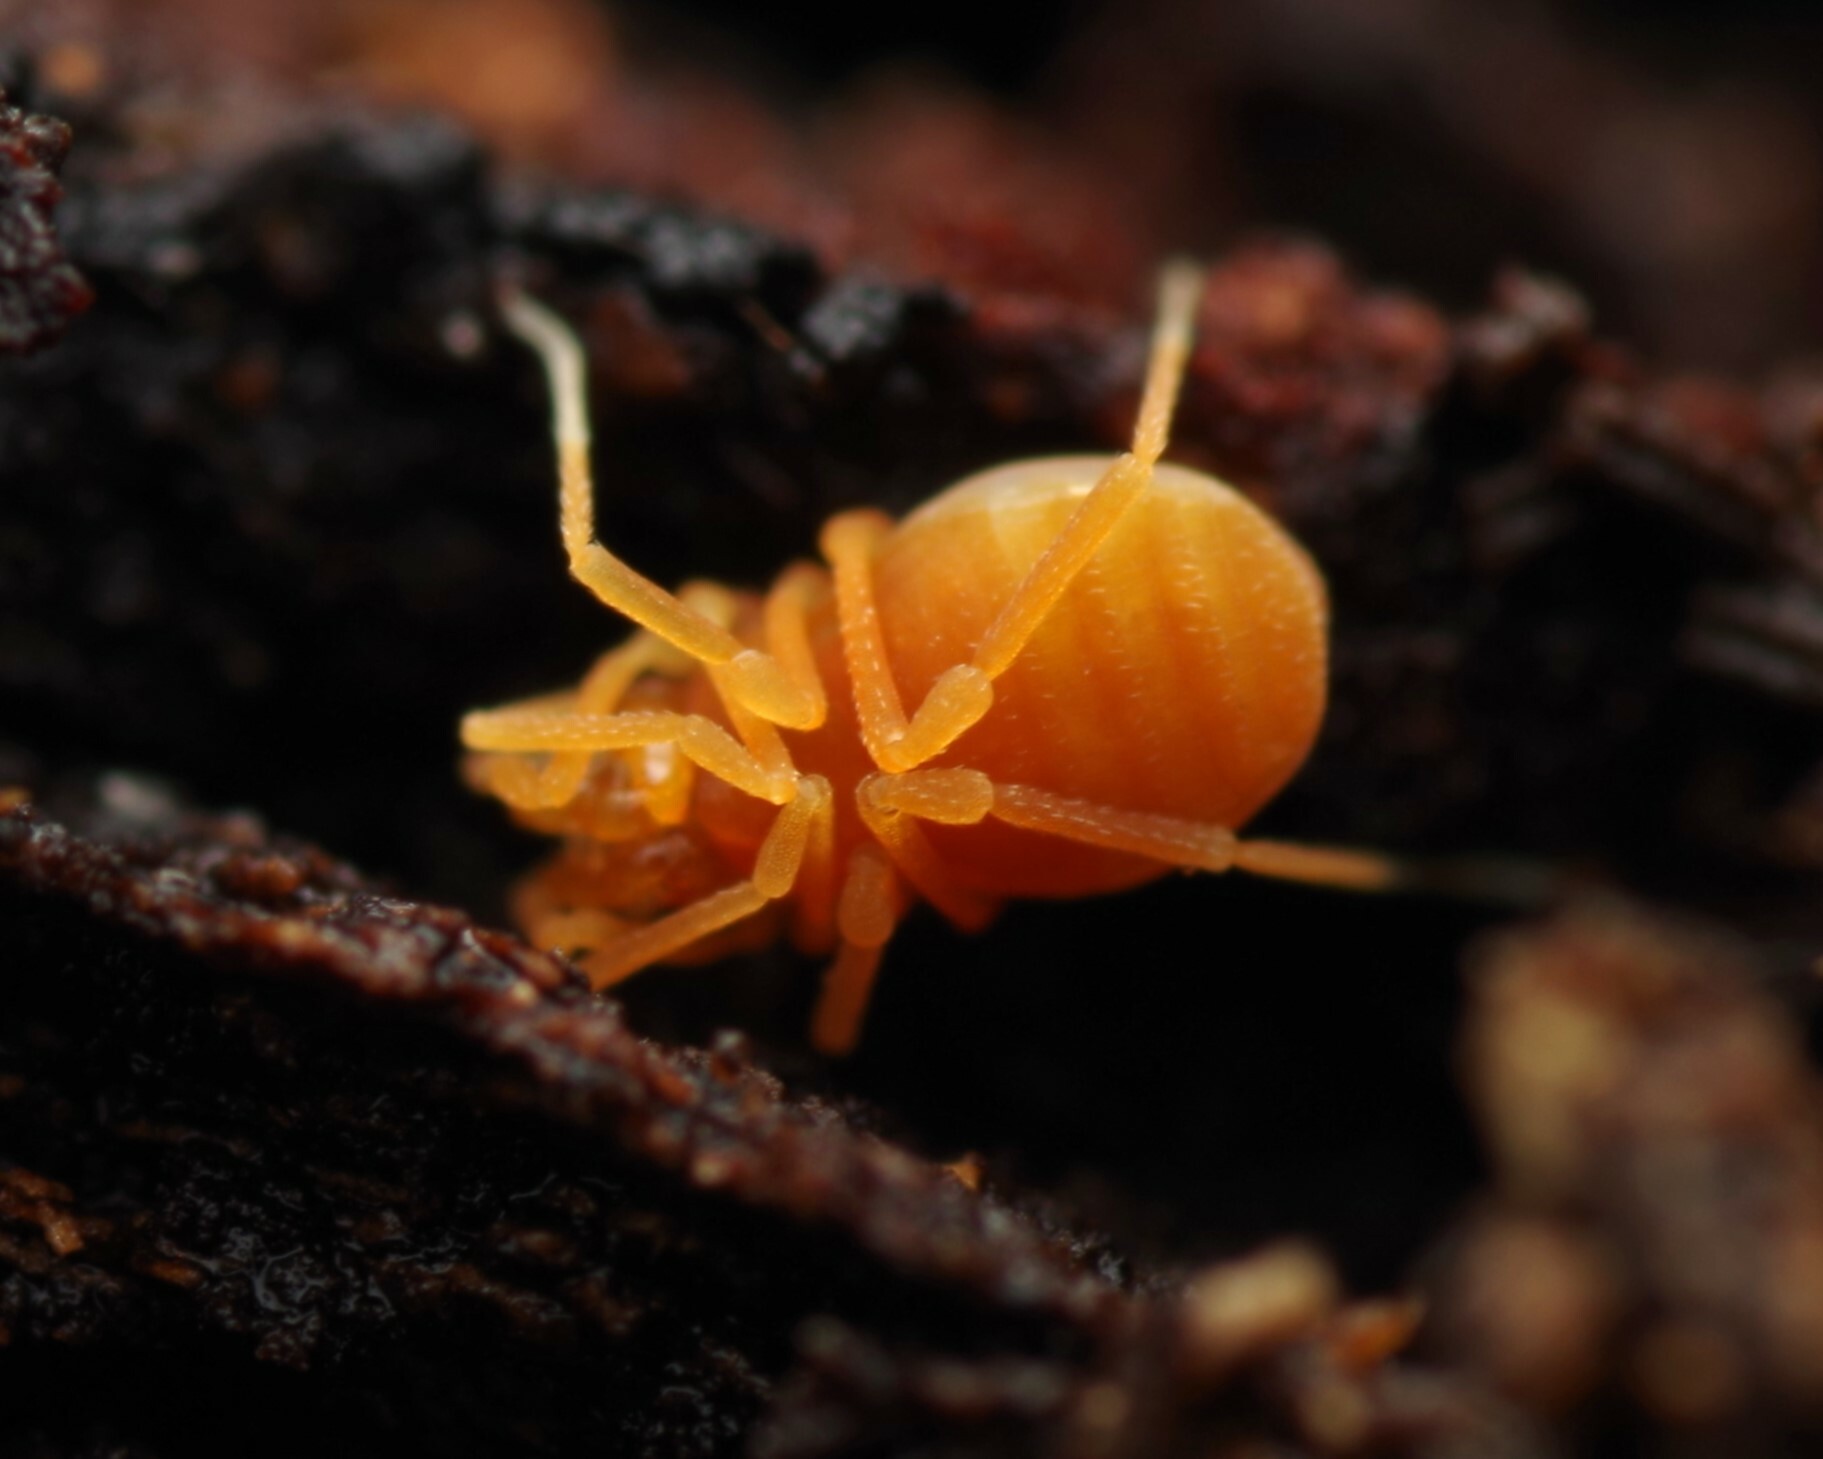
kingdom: Animalia
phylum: Arthropoda
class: Arachnida
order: Opiliones
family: Phalangodidae
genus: Scotolemon
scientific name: Scotolemon doriae
